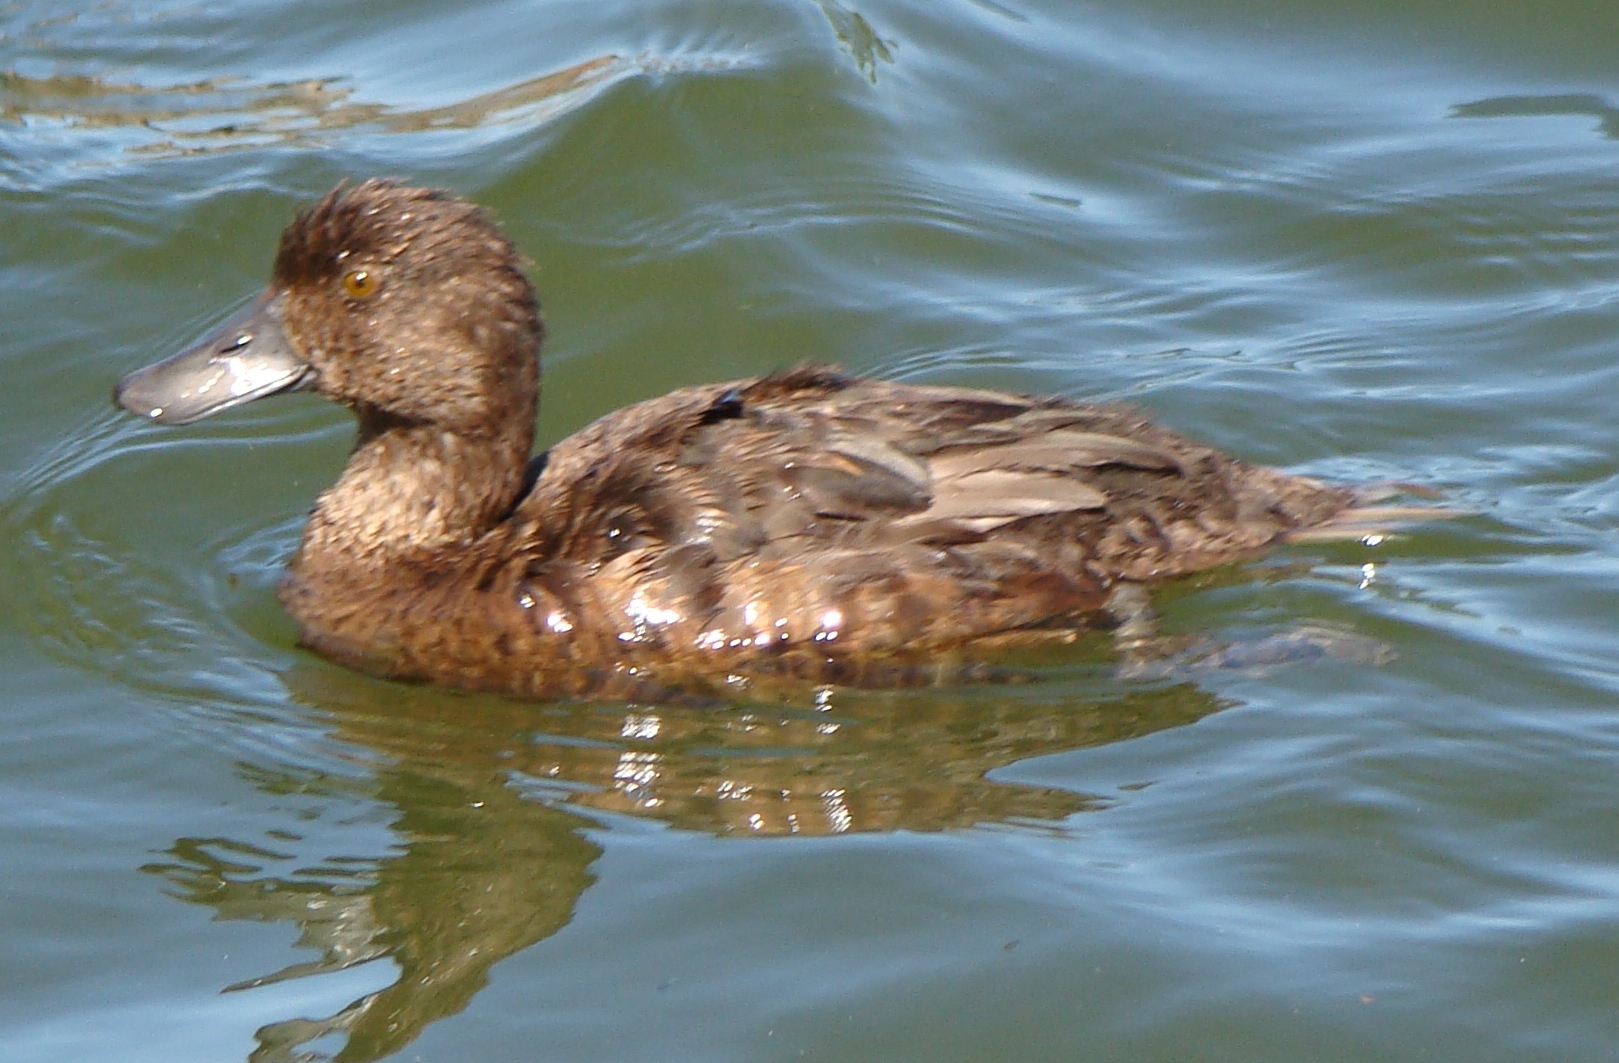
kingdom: Animalia
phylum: Chordata
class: Aves
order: Anseriformes
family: Anatidae
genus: Aythya
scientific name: Aythya novaeseelandiae
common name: New zealand scaup
